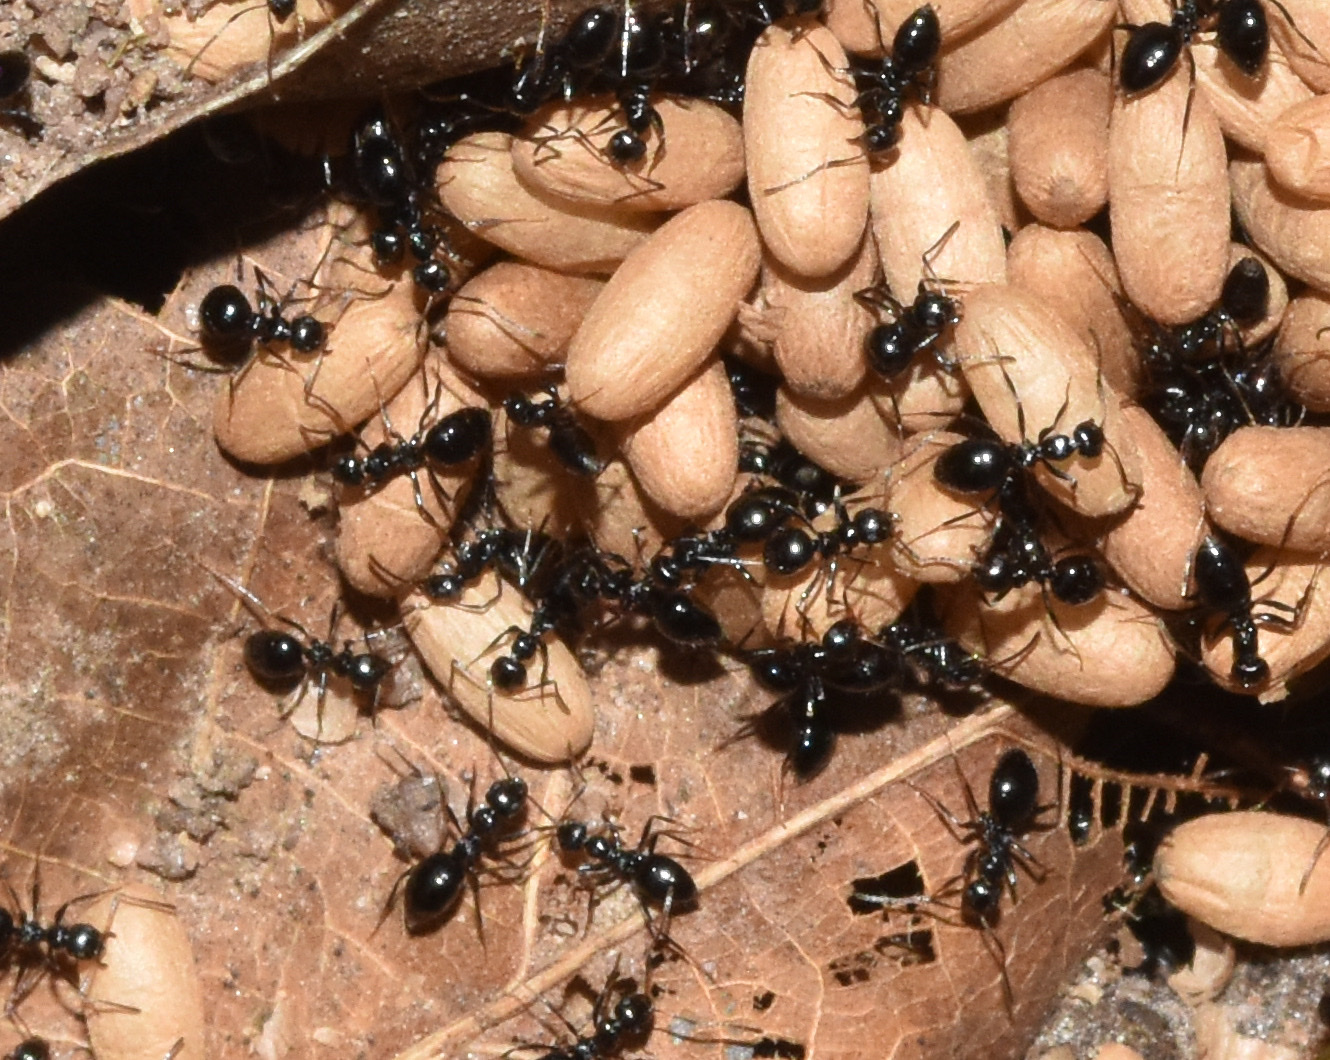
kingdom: Animalia
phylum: Arthropoda
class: Insecta
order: Hymenoptera
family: Formicidae
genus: Lepisiota
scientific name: Lepisiota capensis
